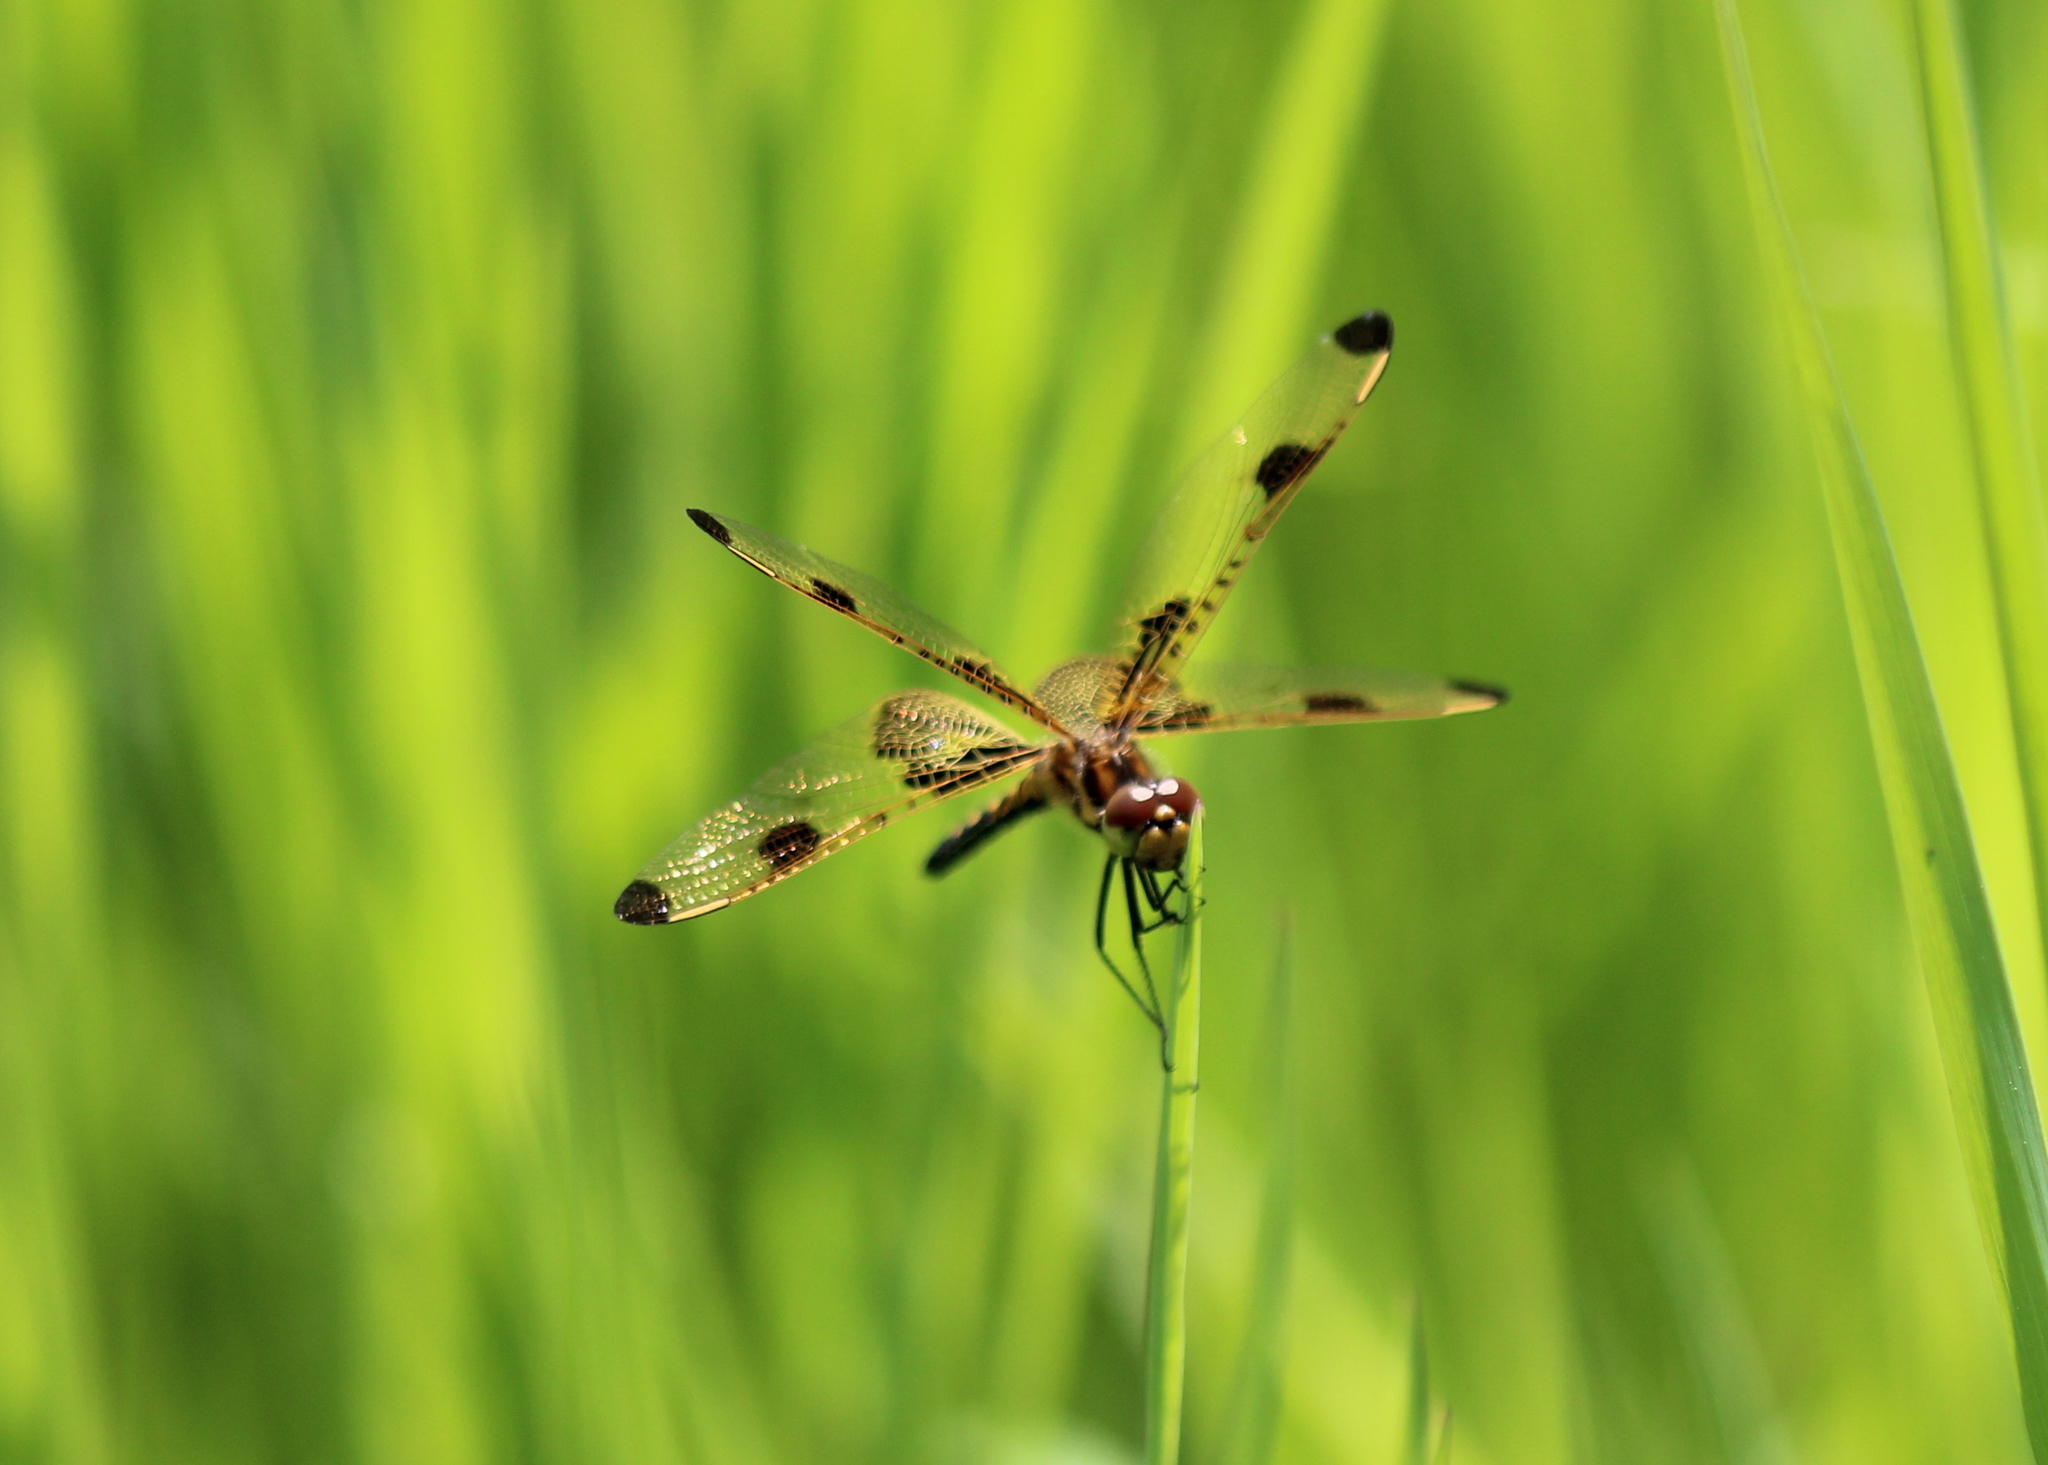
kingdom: Animalia
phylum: Arthropoda
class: Insecta
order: Odonata
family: Libellulidae
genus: Celithemis
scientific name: Celithemis elisa
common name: Calico pennant
